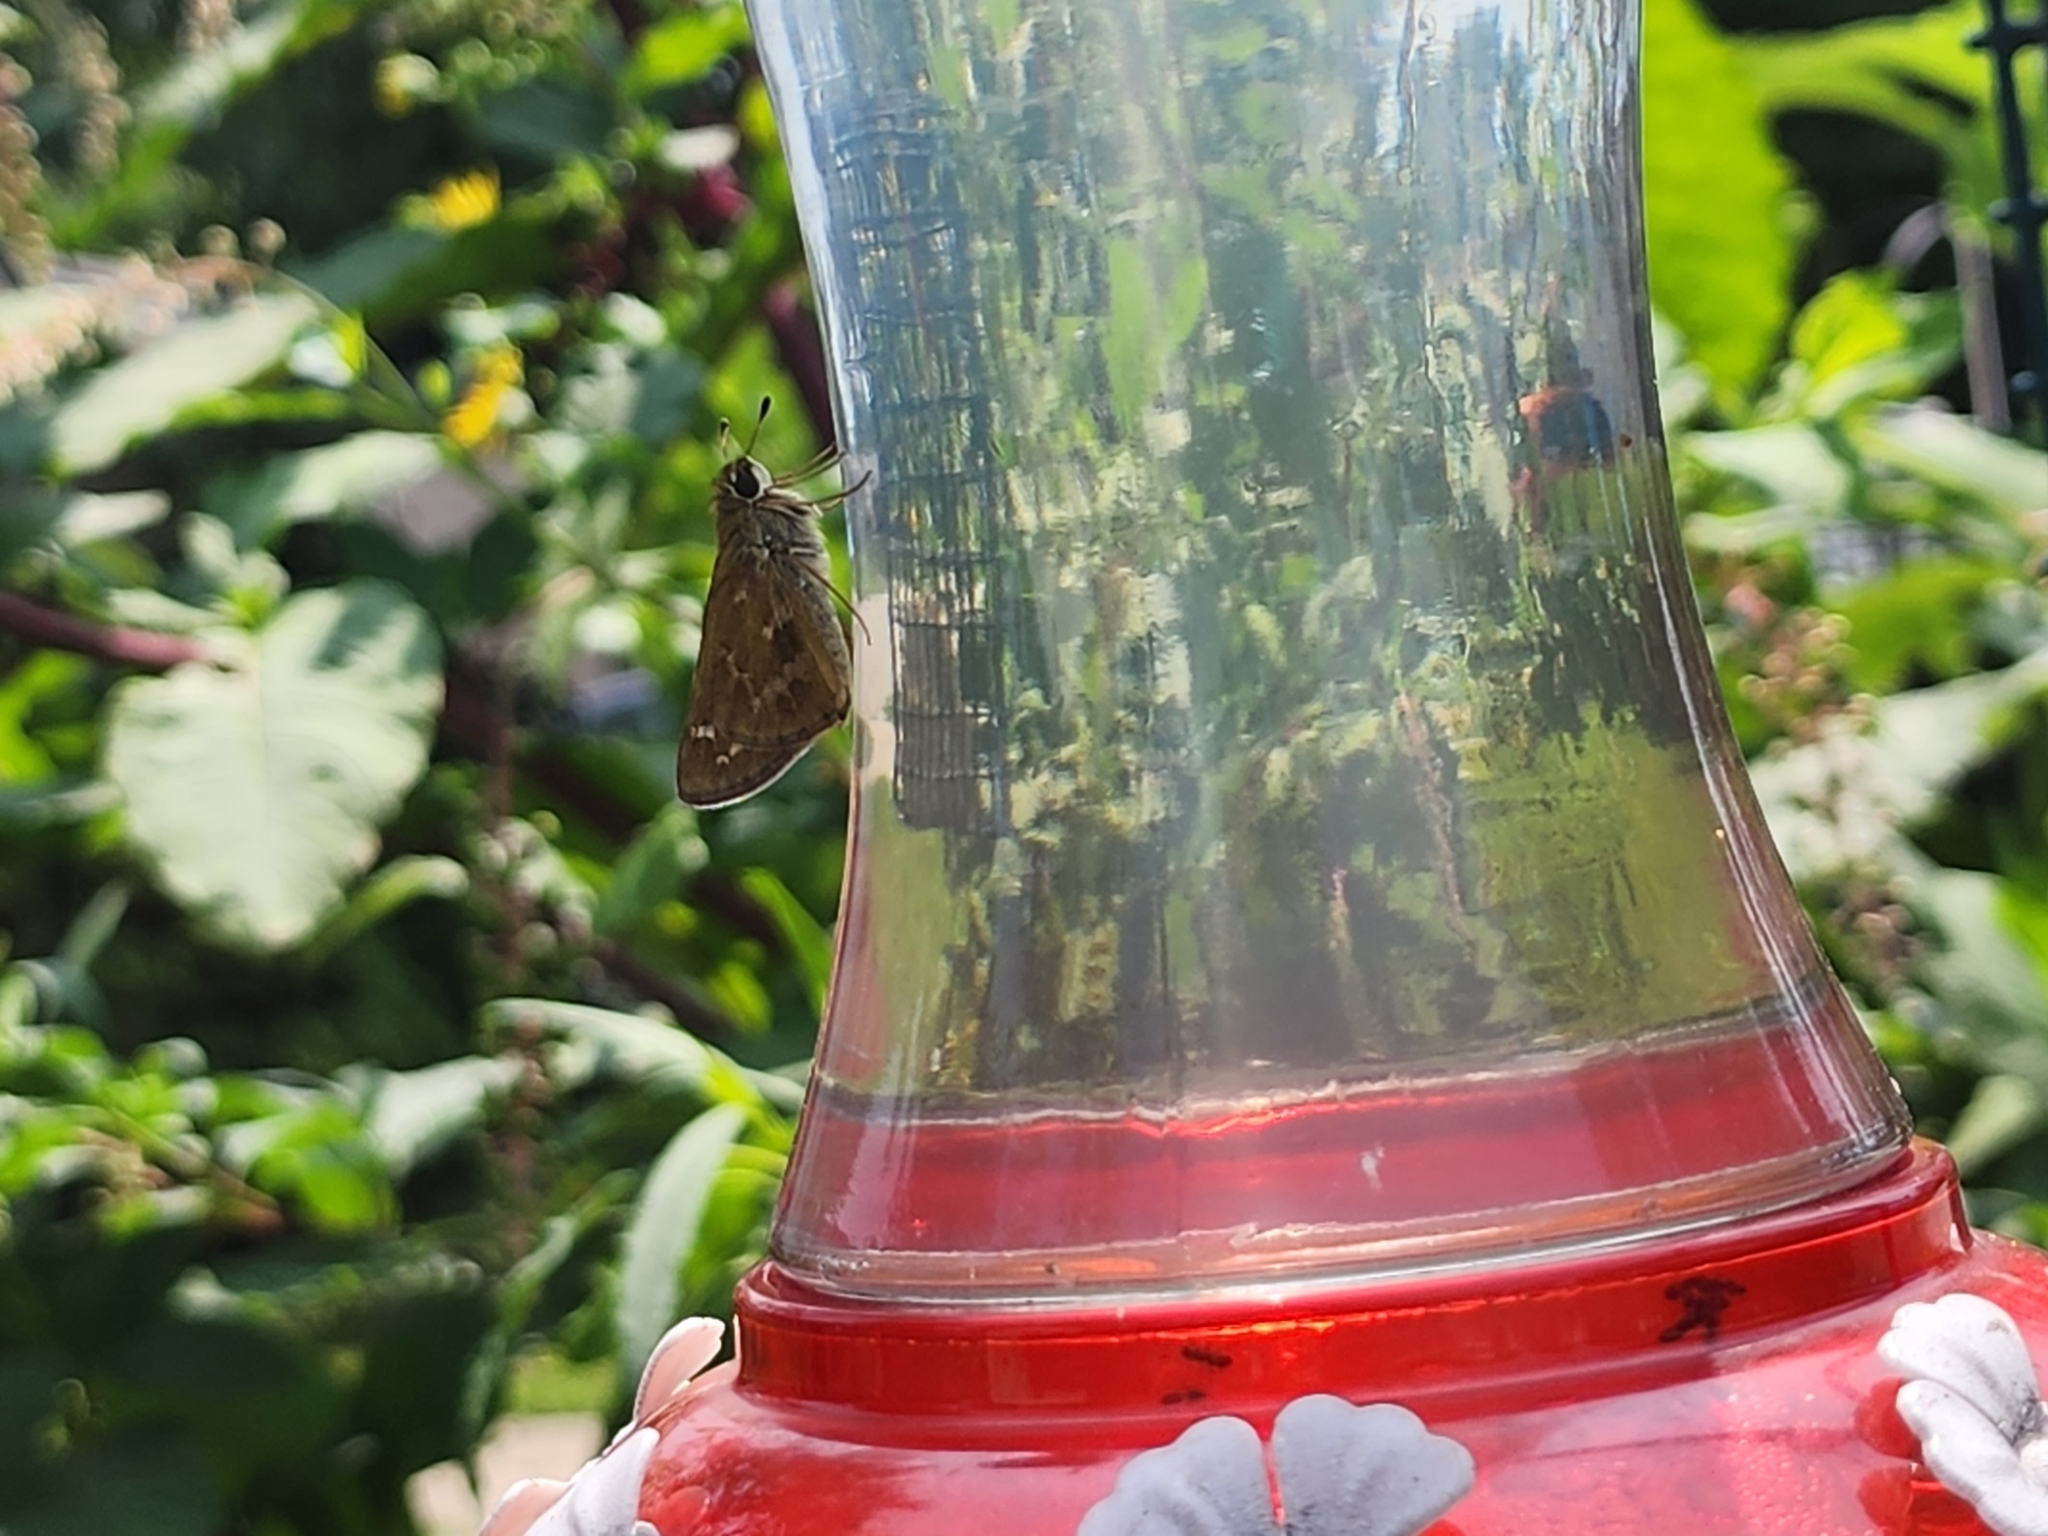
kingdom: Animalia
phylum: Arthropoda
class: Insecta
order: Lepidoptera
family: Hesperiidae
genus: Atalopedes
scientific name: Atalopedes
